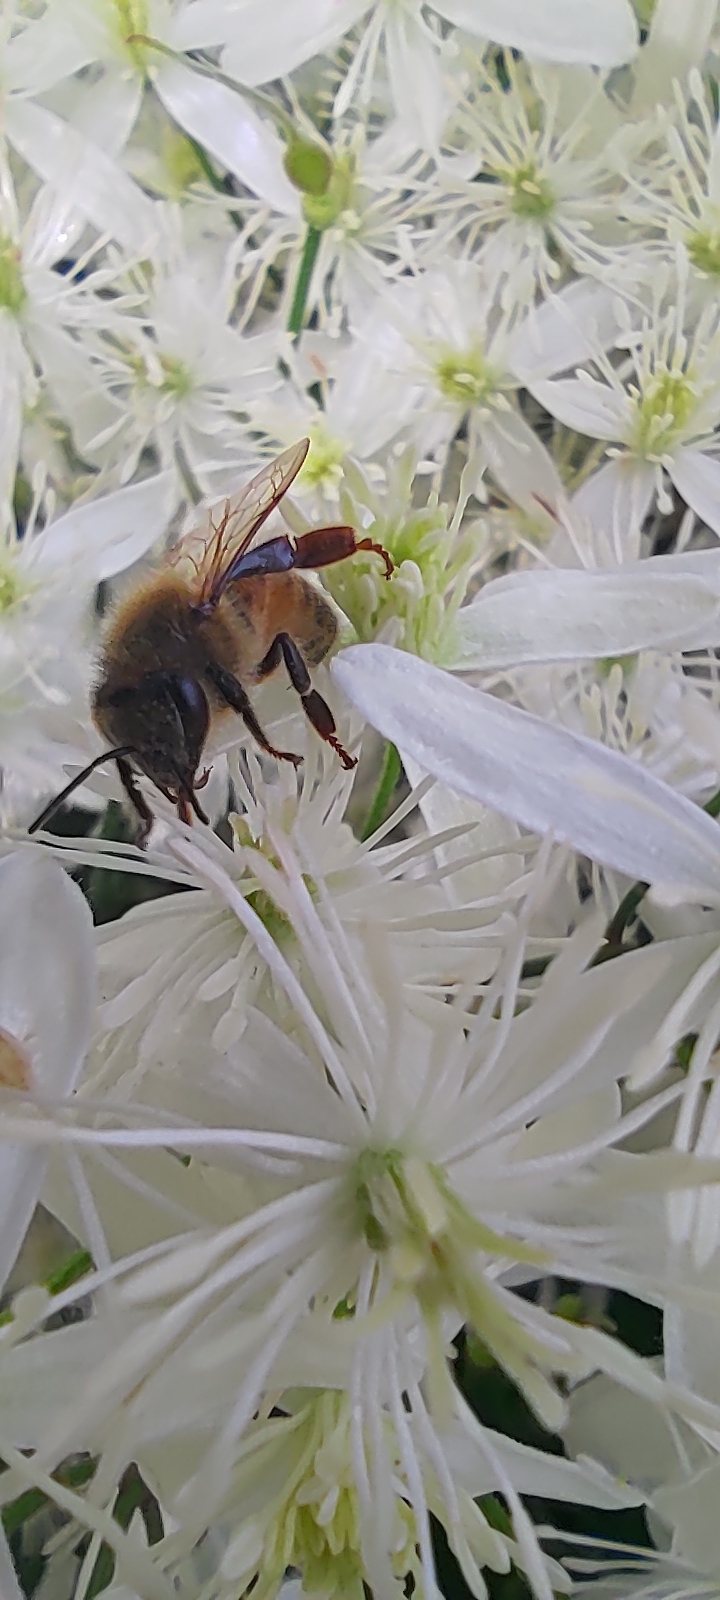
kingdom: Animalia
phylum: Arthropoda
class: Insecta
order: Hymenoptera
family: Apidae
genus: Apis
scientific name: Apis mellifera
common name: Honey bee
